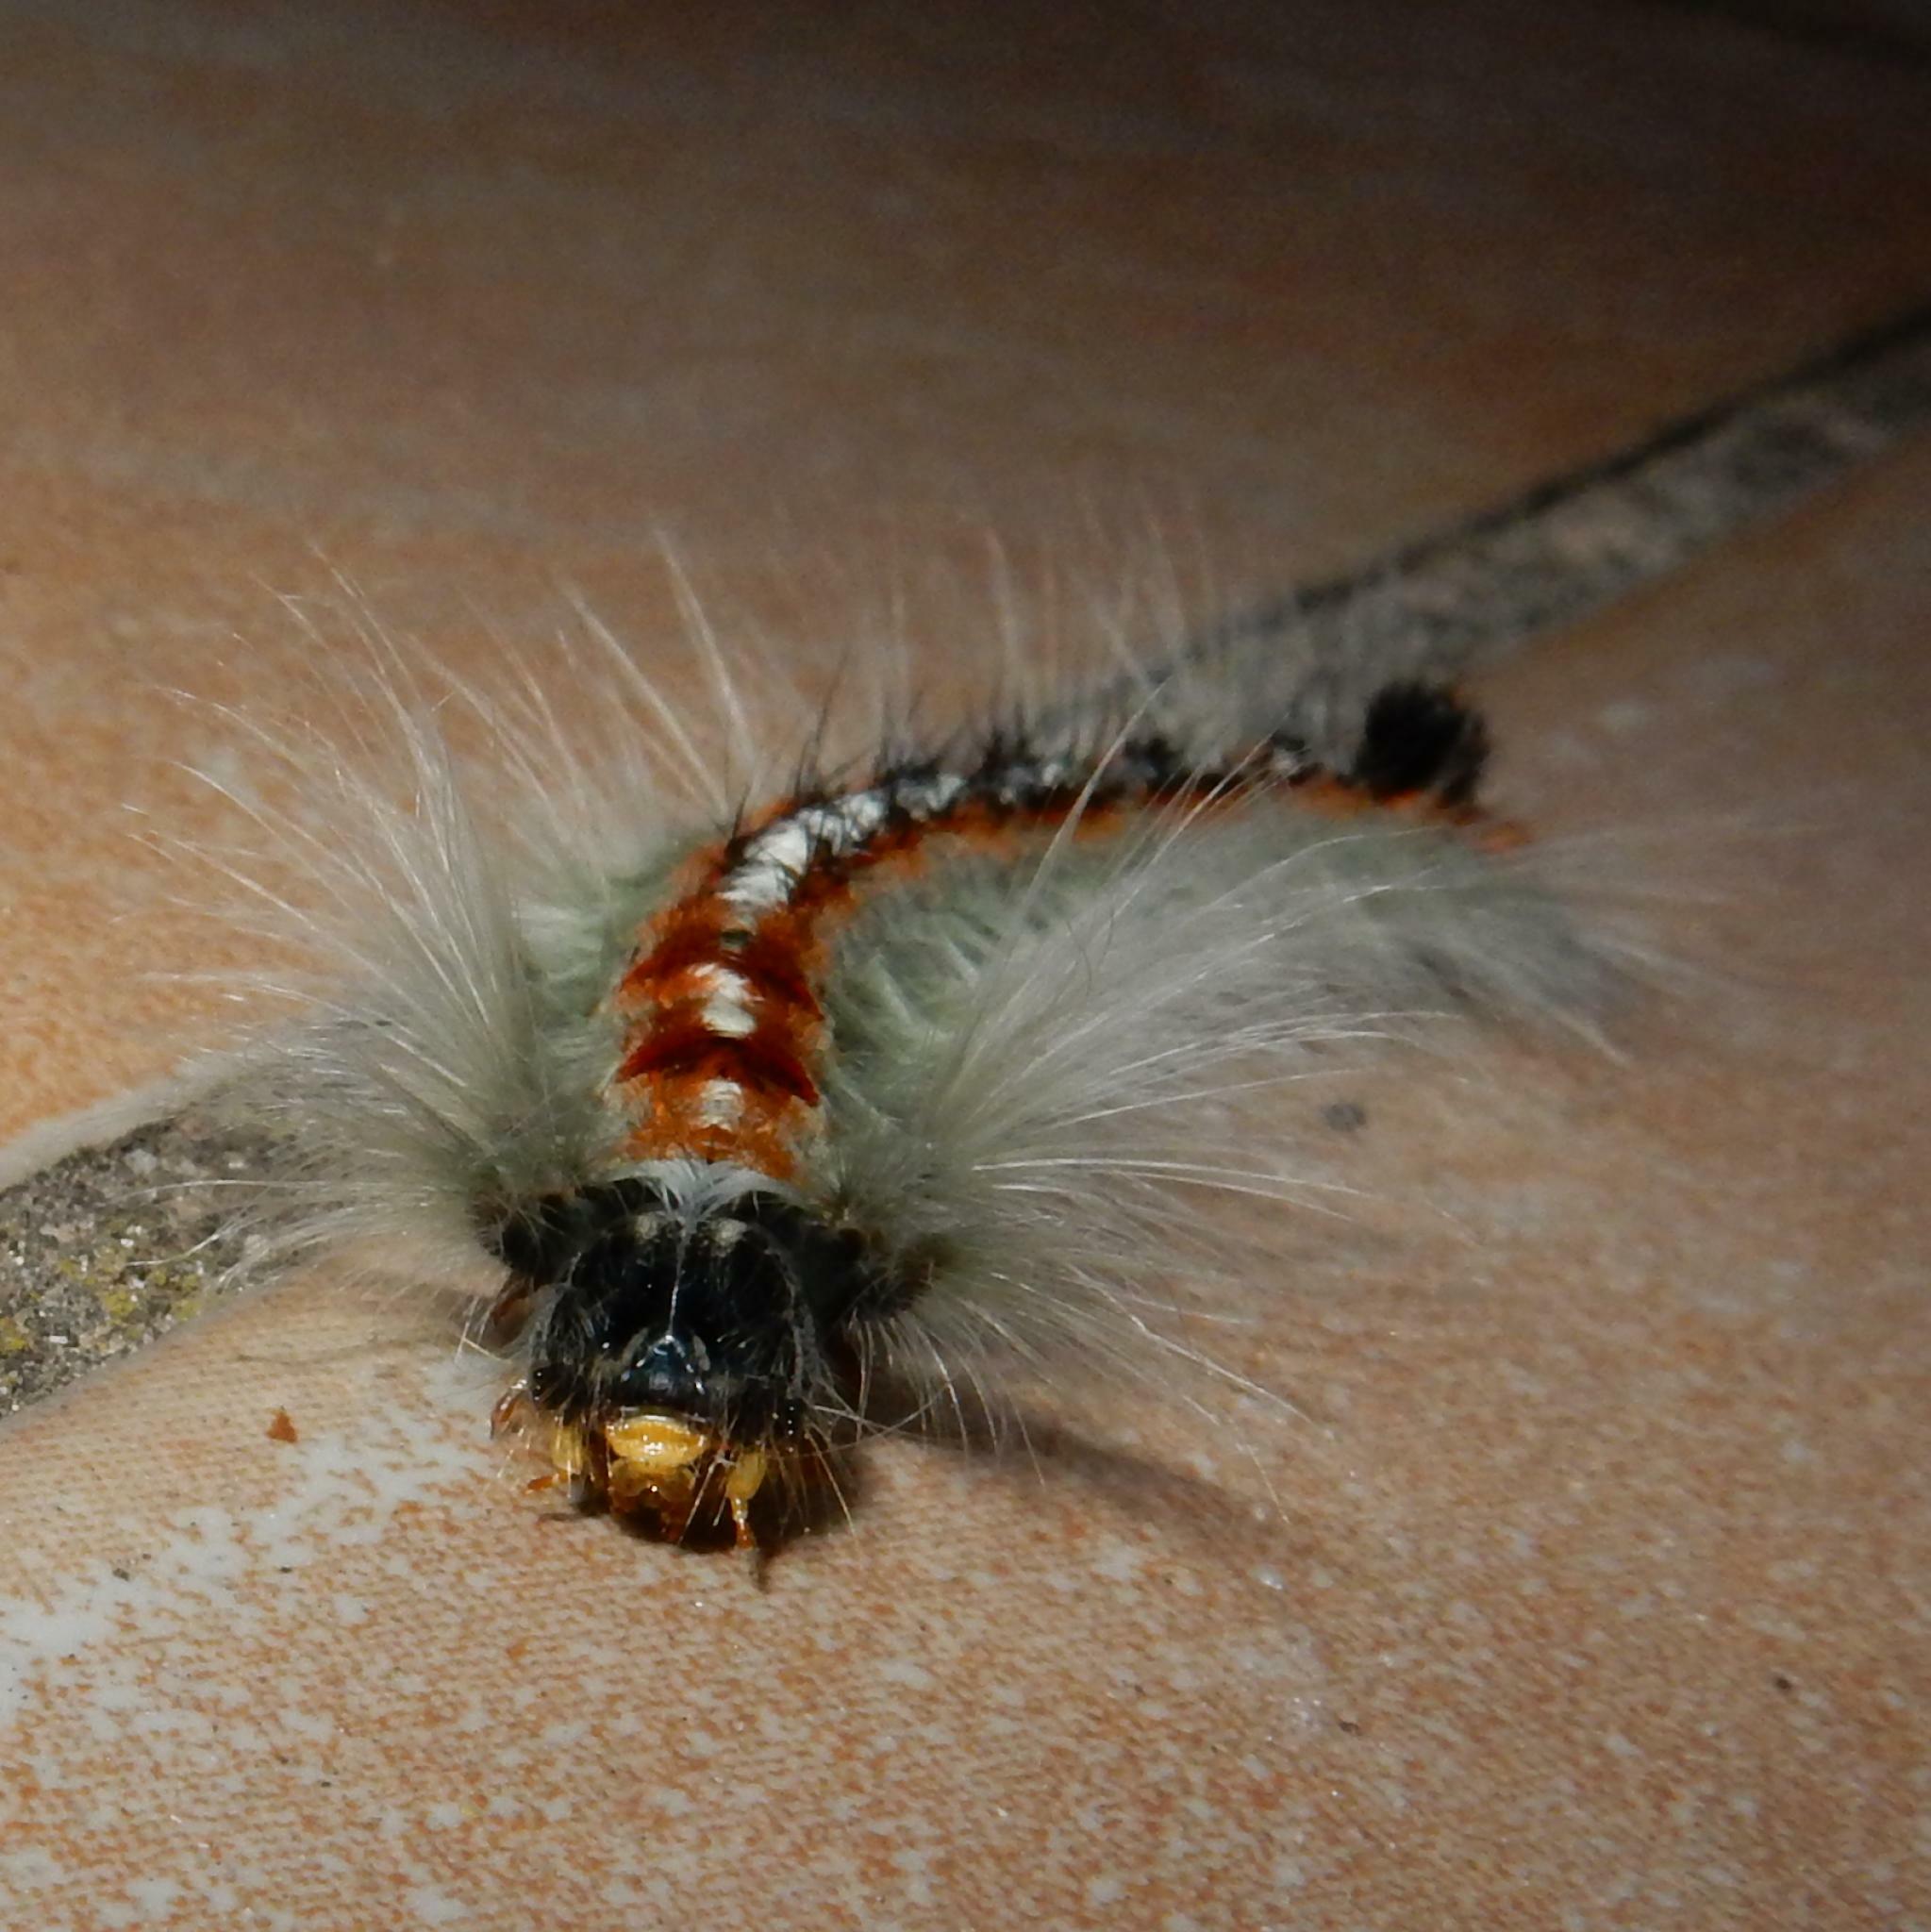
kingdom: Animalia
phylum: Arthropoda
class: Insecta
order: Lepidoptera
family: Lasiocampidae
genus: Eutricha
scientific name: Eutricha obscura
